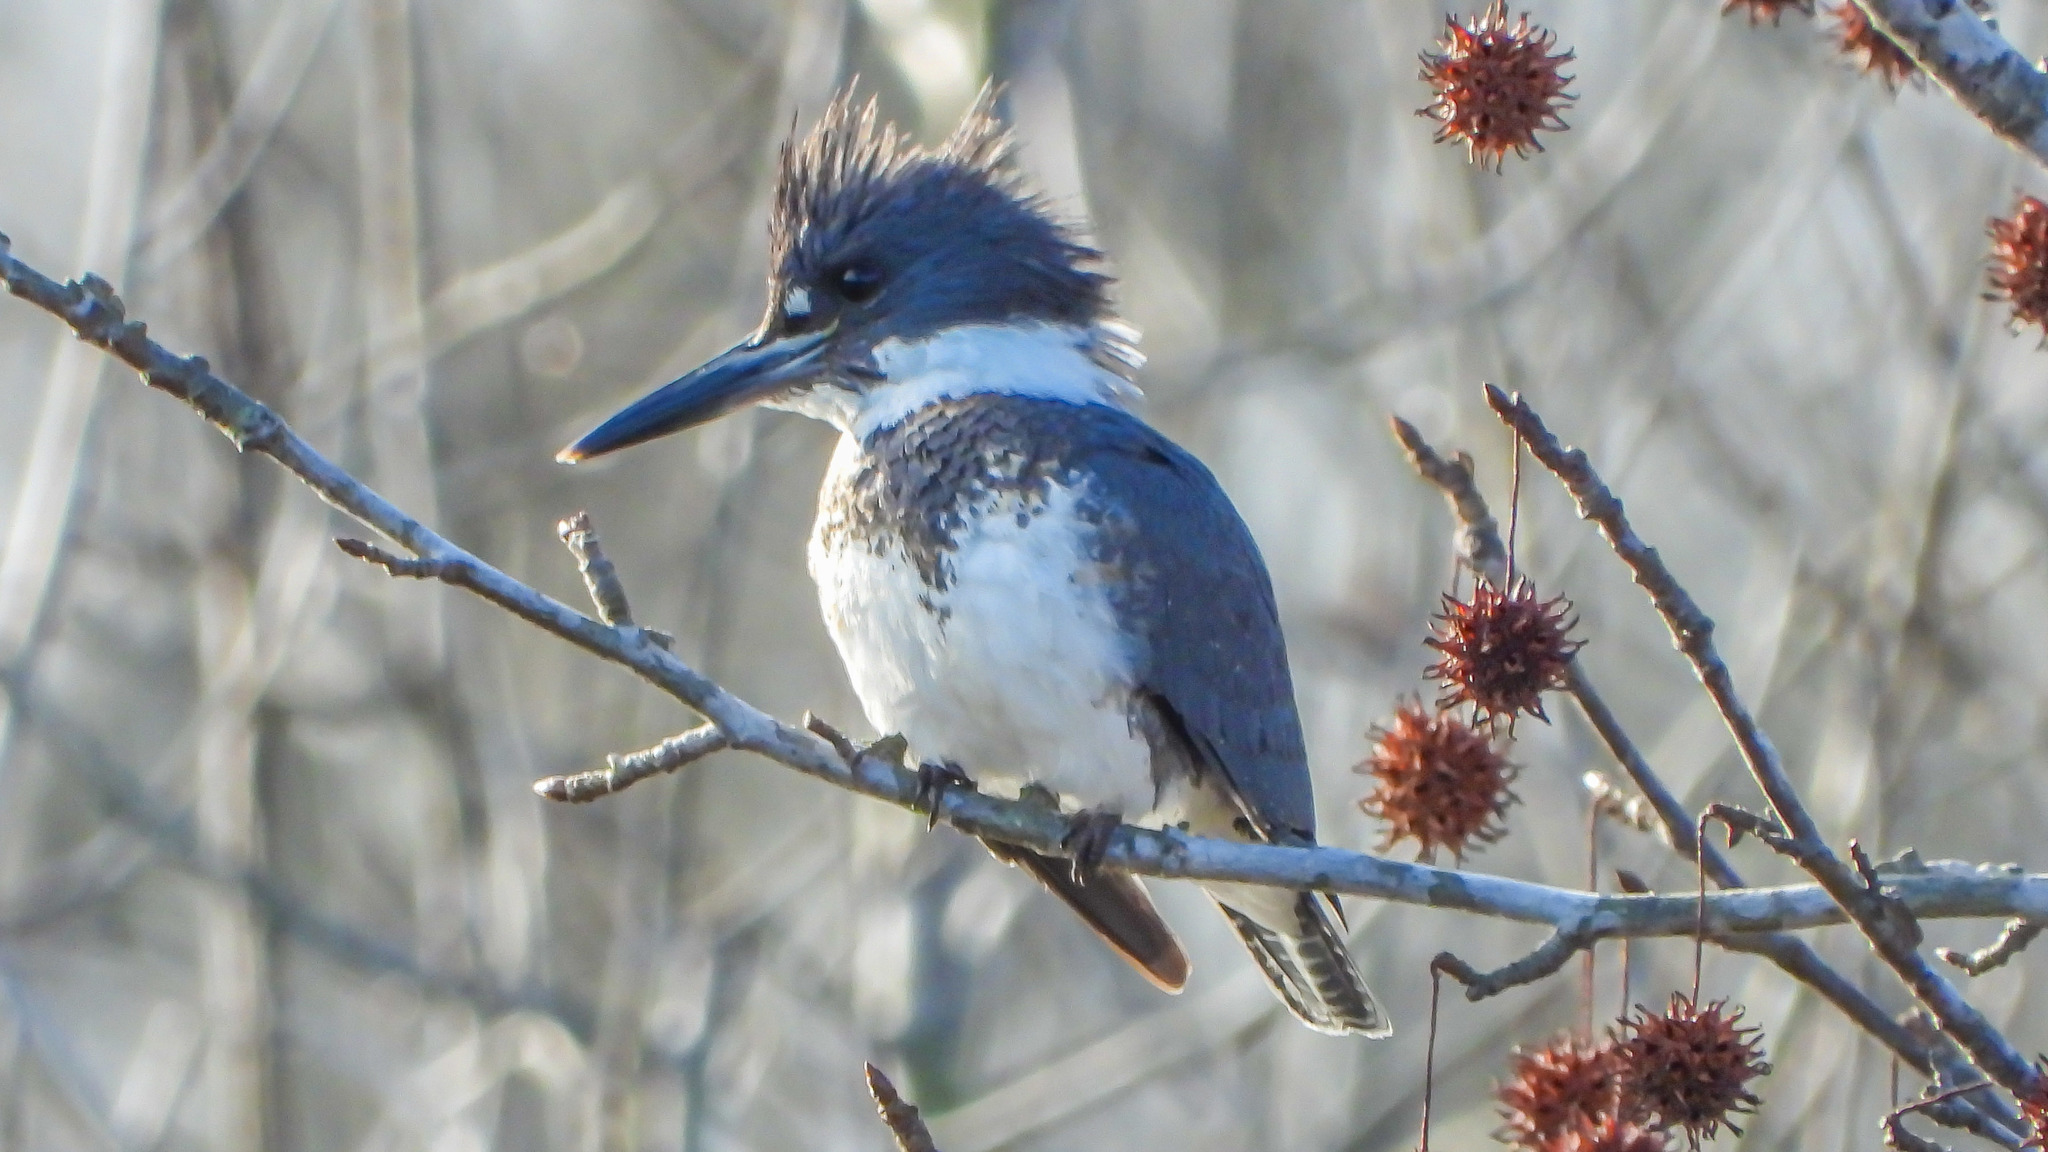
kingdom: Animalia
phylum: Chordata
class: Aves
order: Coraciiformes
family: Alcedinidae
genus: Megaceryle
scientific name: Megaceryle alcyon
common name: Belted kingfisher
